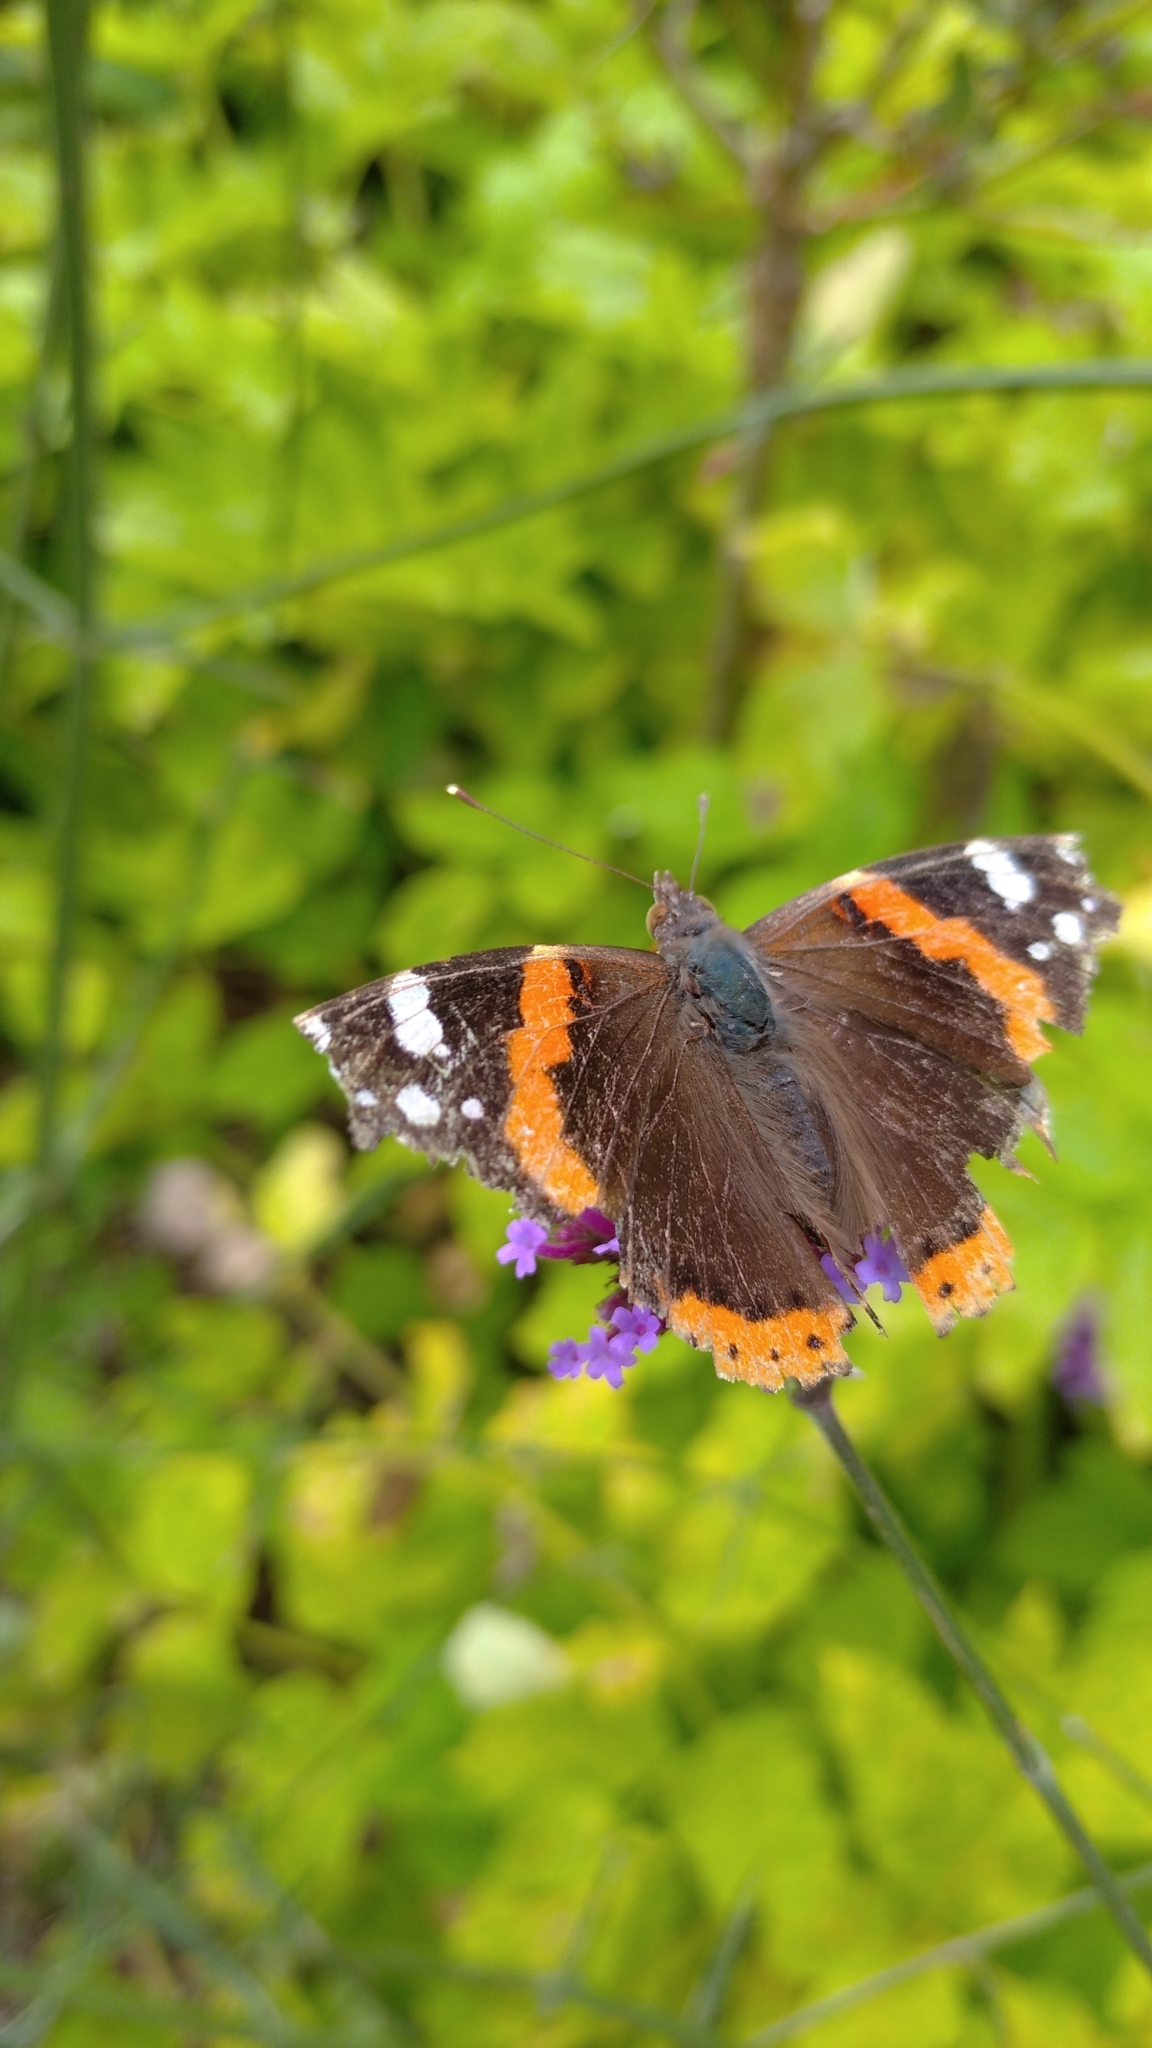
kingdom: Animalia
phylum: Arthropoda
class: Insecta
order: Lepidoptera
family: Nymphalidae
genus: Vanessa
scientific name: Vanessa atalanta
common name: Red admiral
